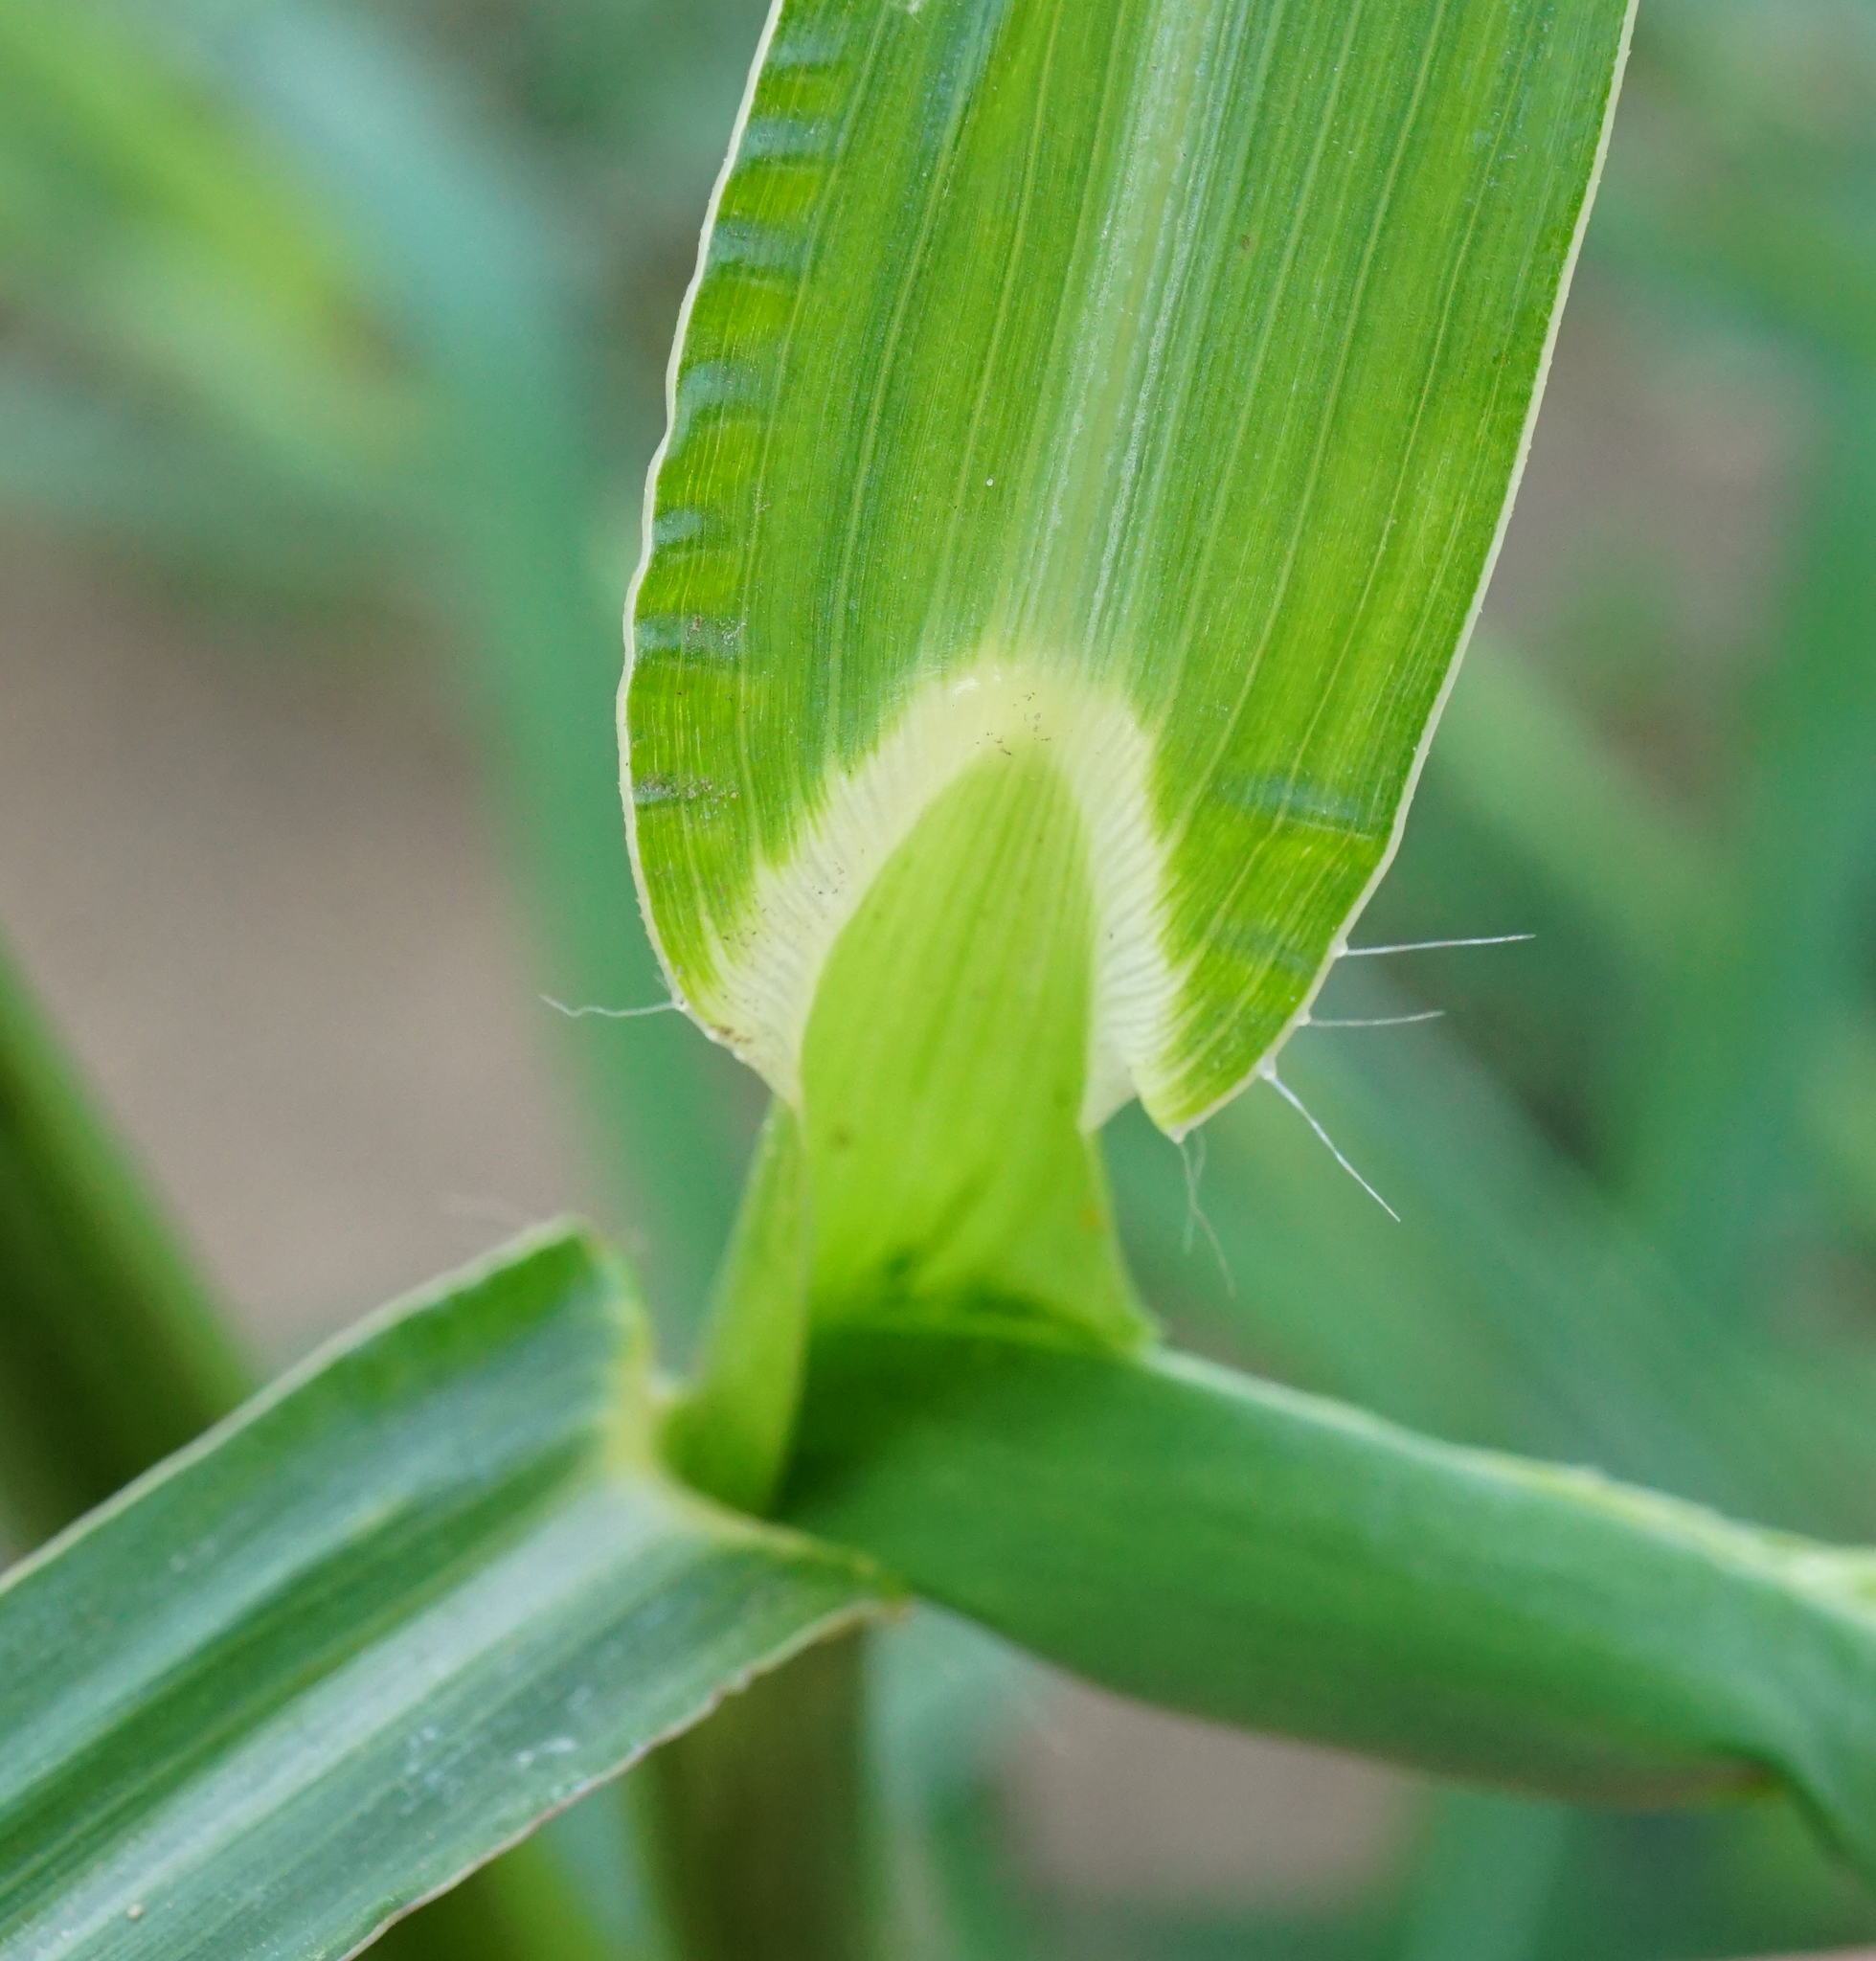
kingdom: Plantae
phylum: Tracheophyta
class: Liliopsida
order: Poales
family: Poaceae
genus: Echinochloa
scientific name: Echinochloa crus-galli
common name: Cockspur
